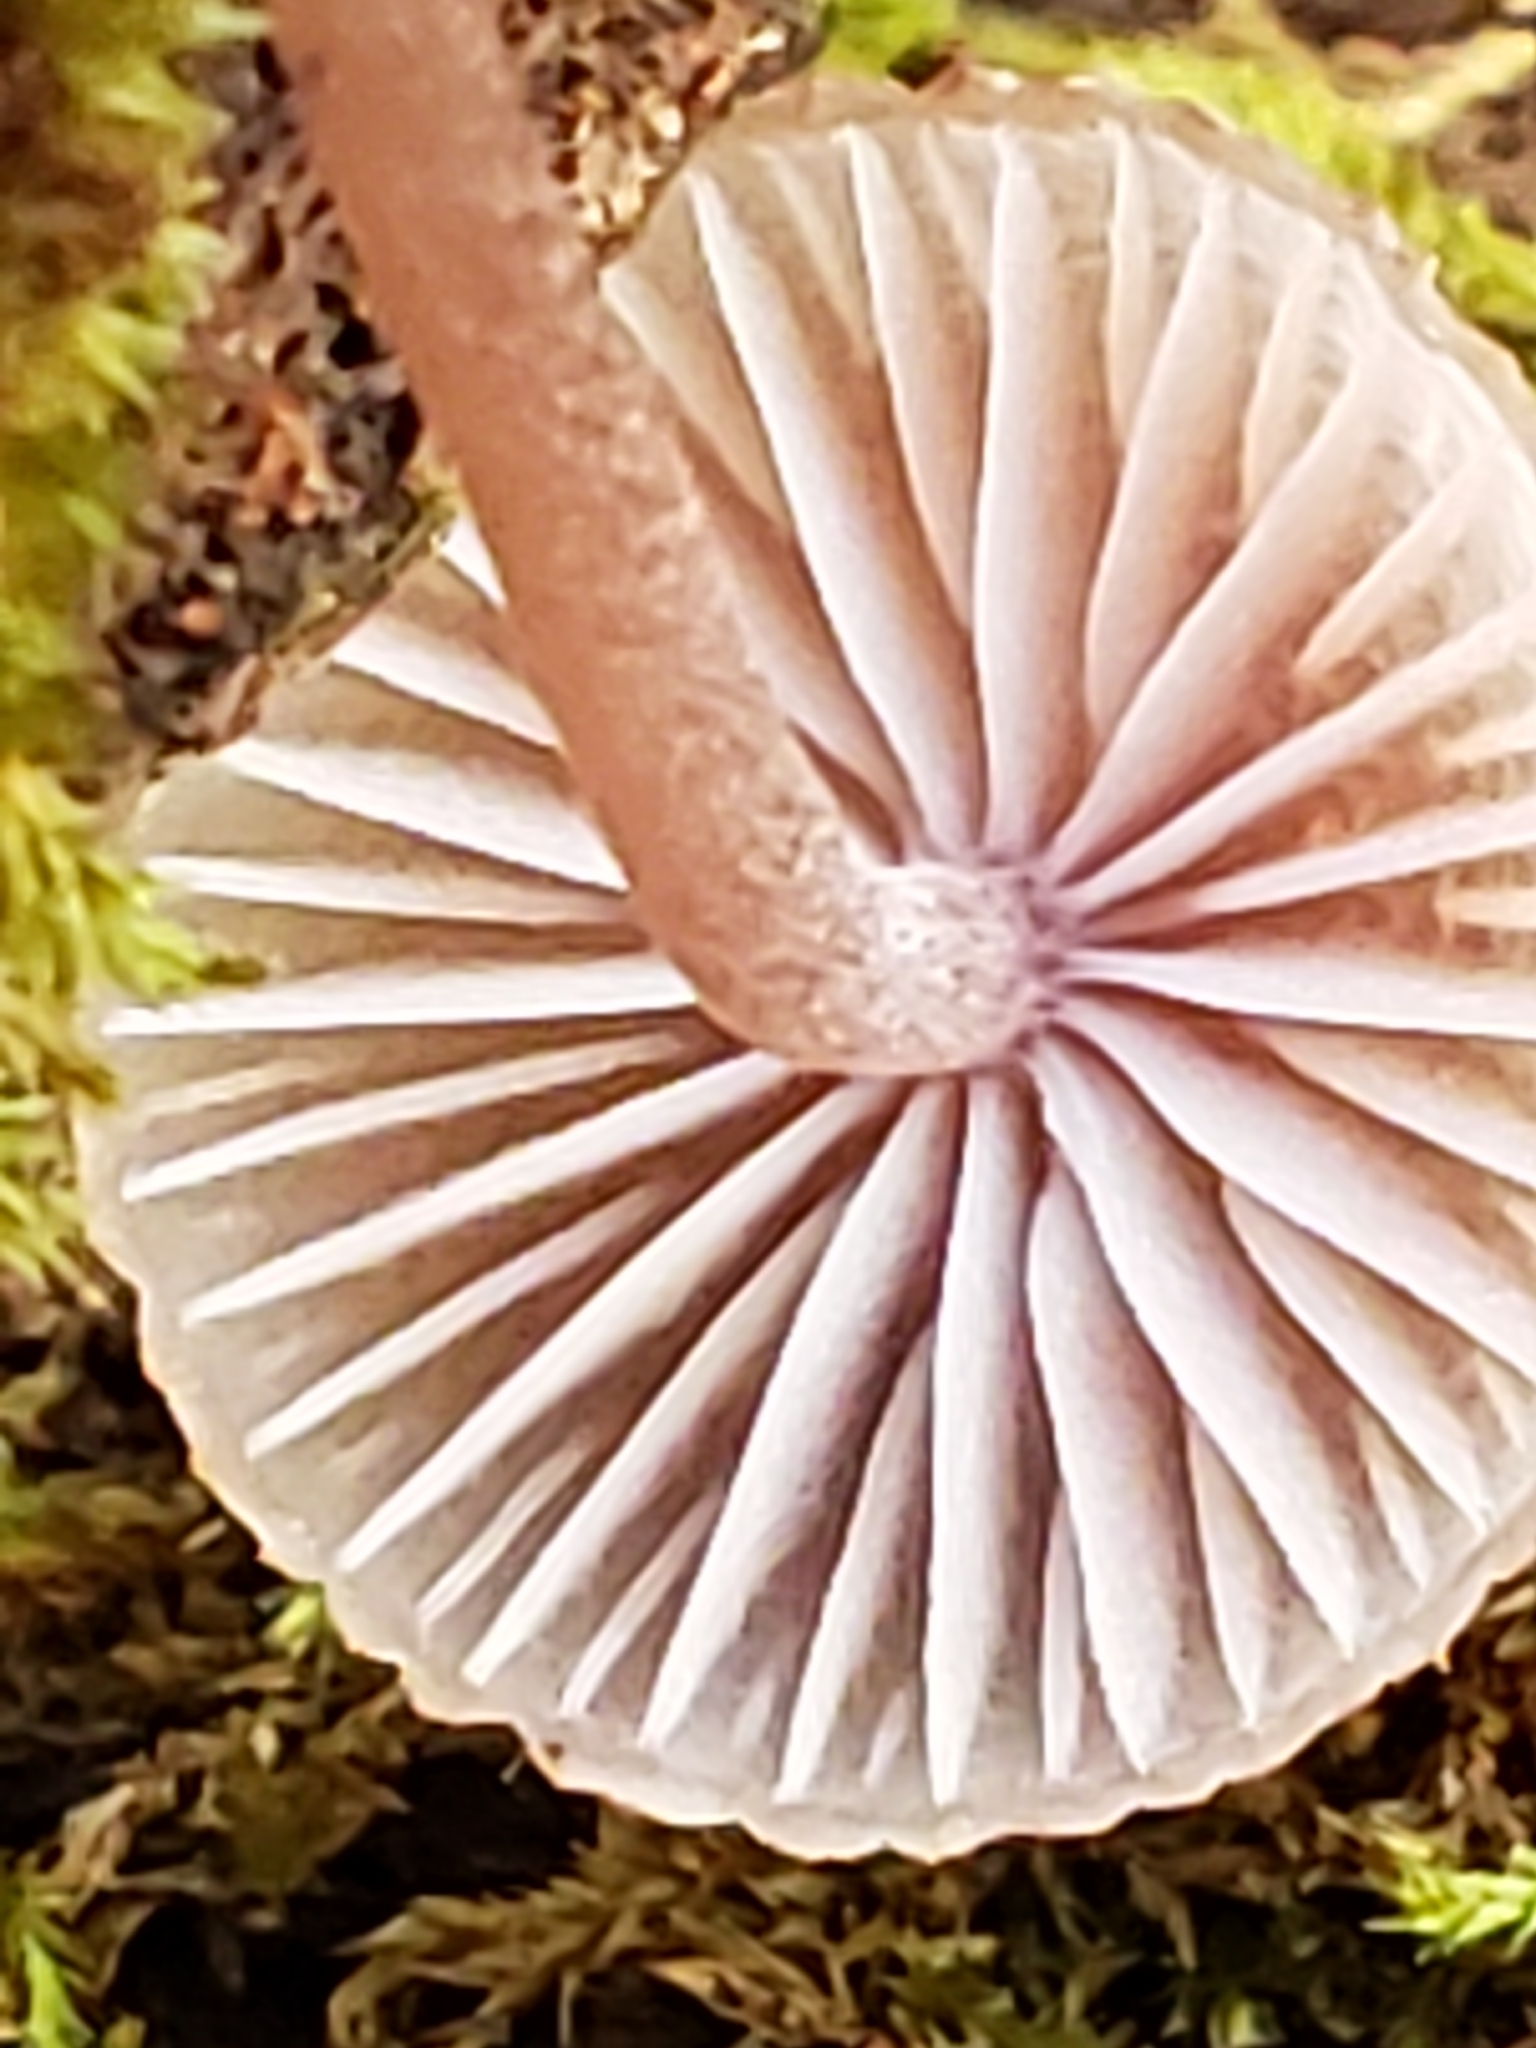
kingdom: Fungi
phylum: Basidiomycota
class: Agaricomycetes
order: Agaricales
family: Mycenaceae
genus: Mycena
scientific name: Mycena pura
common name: Lilac bonnet
